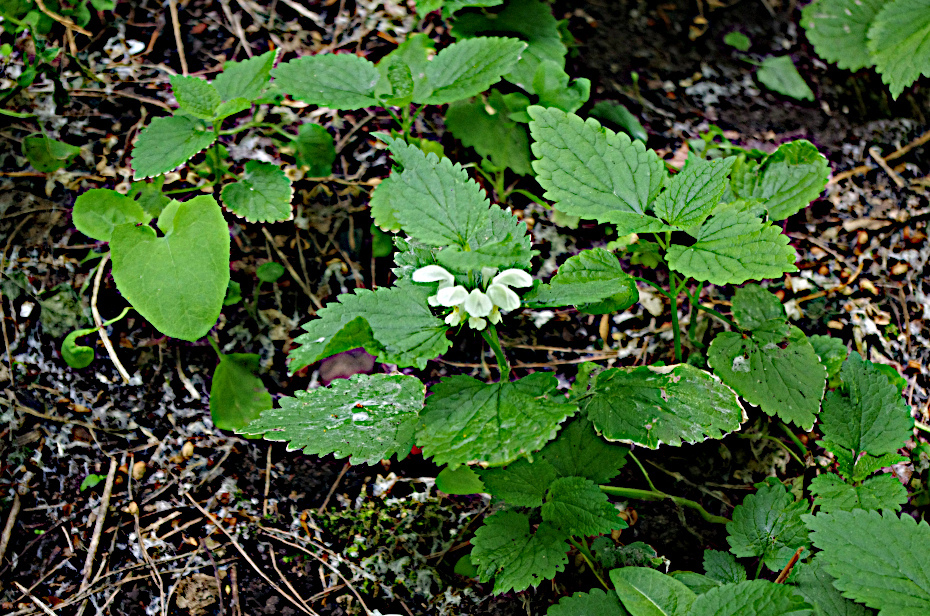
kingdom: Plantae
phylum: Tracheophyta
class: Magnoliopsida
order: Lamiales
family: Lamiaceae
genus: Lamium
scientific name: Lamium album
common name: White dead-nettle
